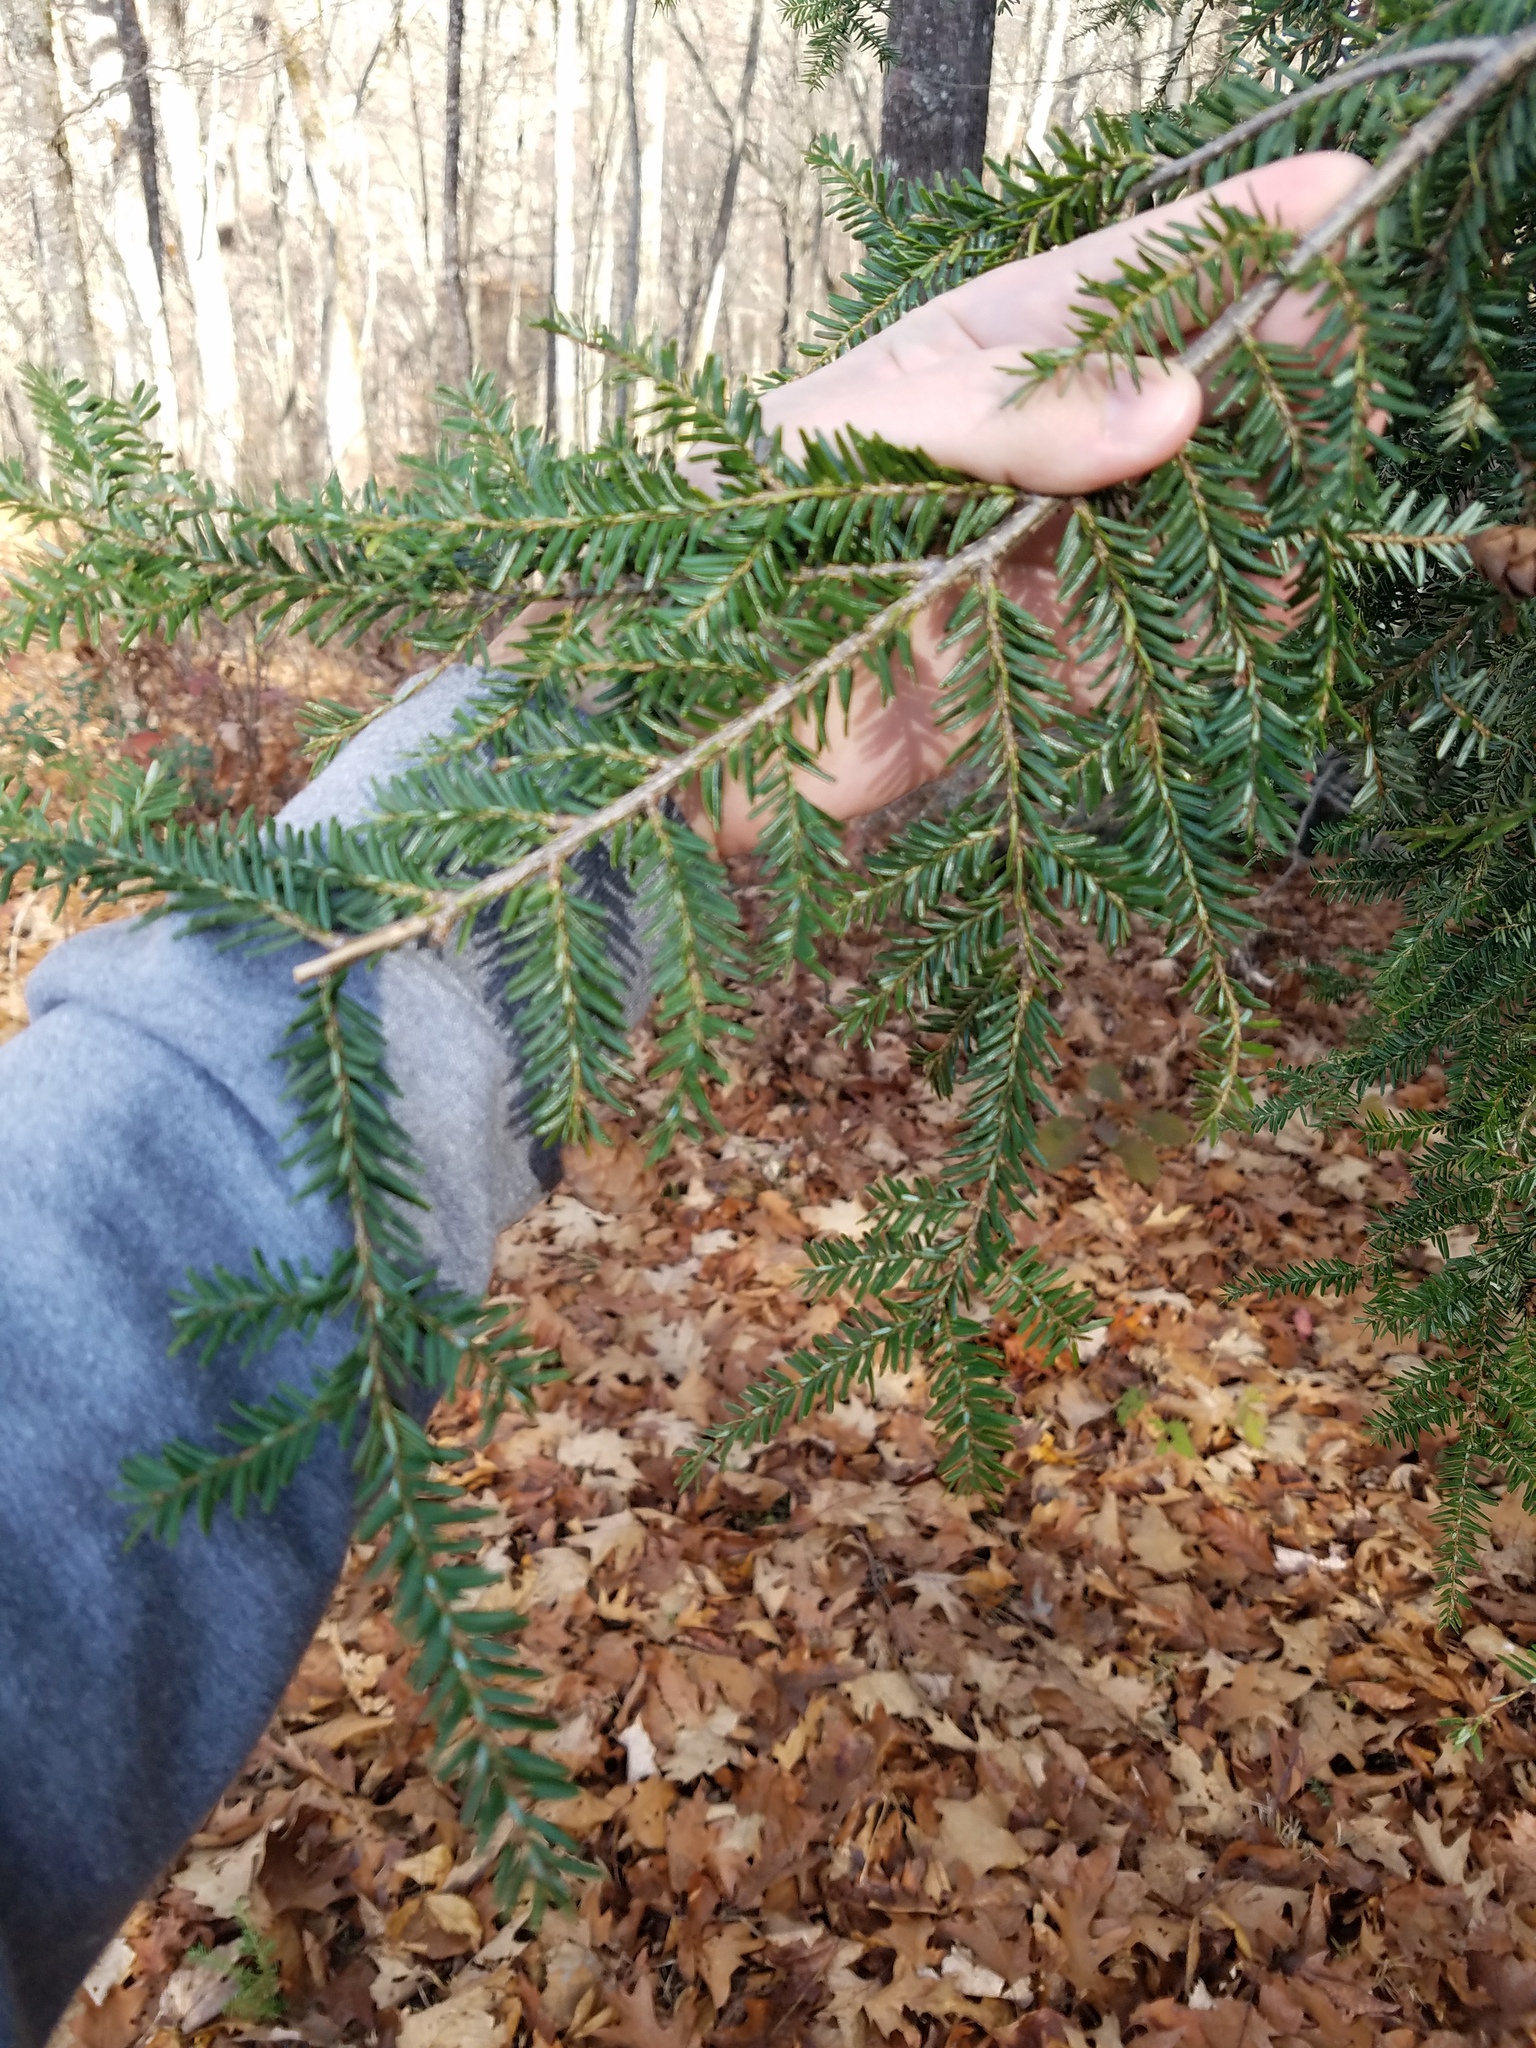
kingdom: Plantae
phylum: Tracheophyta
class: Pinopsida
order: Pinales
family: Pinaceae
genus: Tsuga
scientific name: Tsuga canadensis
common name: Eastern hemlock
